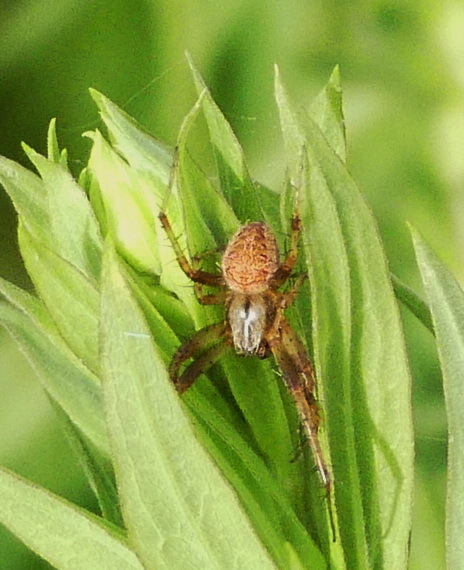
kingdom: Animalia
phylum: Arthropoda
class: Arachnida
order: Araneae
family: Araneidae
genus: Neoscona
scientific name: Neoscona arabesca
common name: Orb weavers
